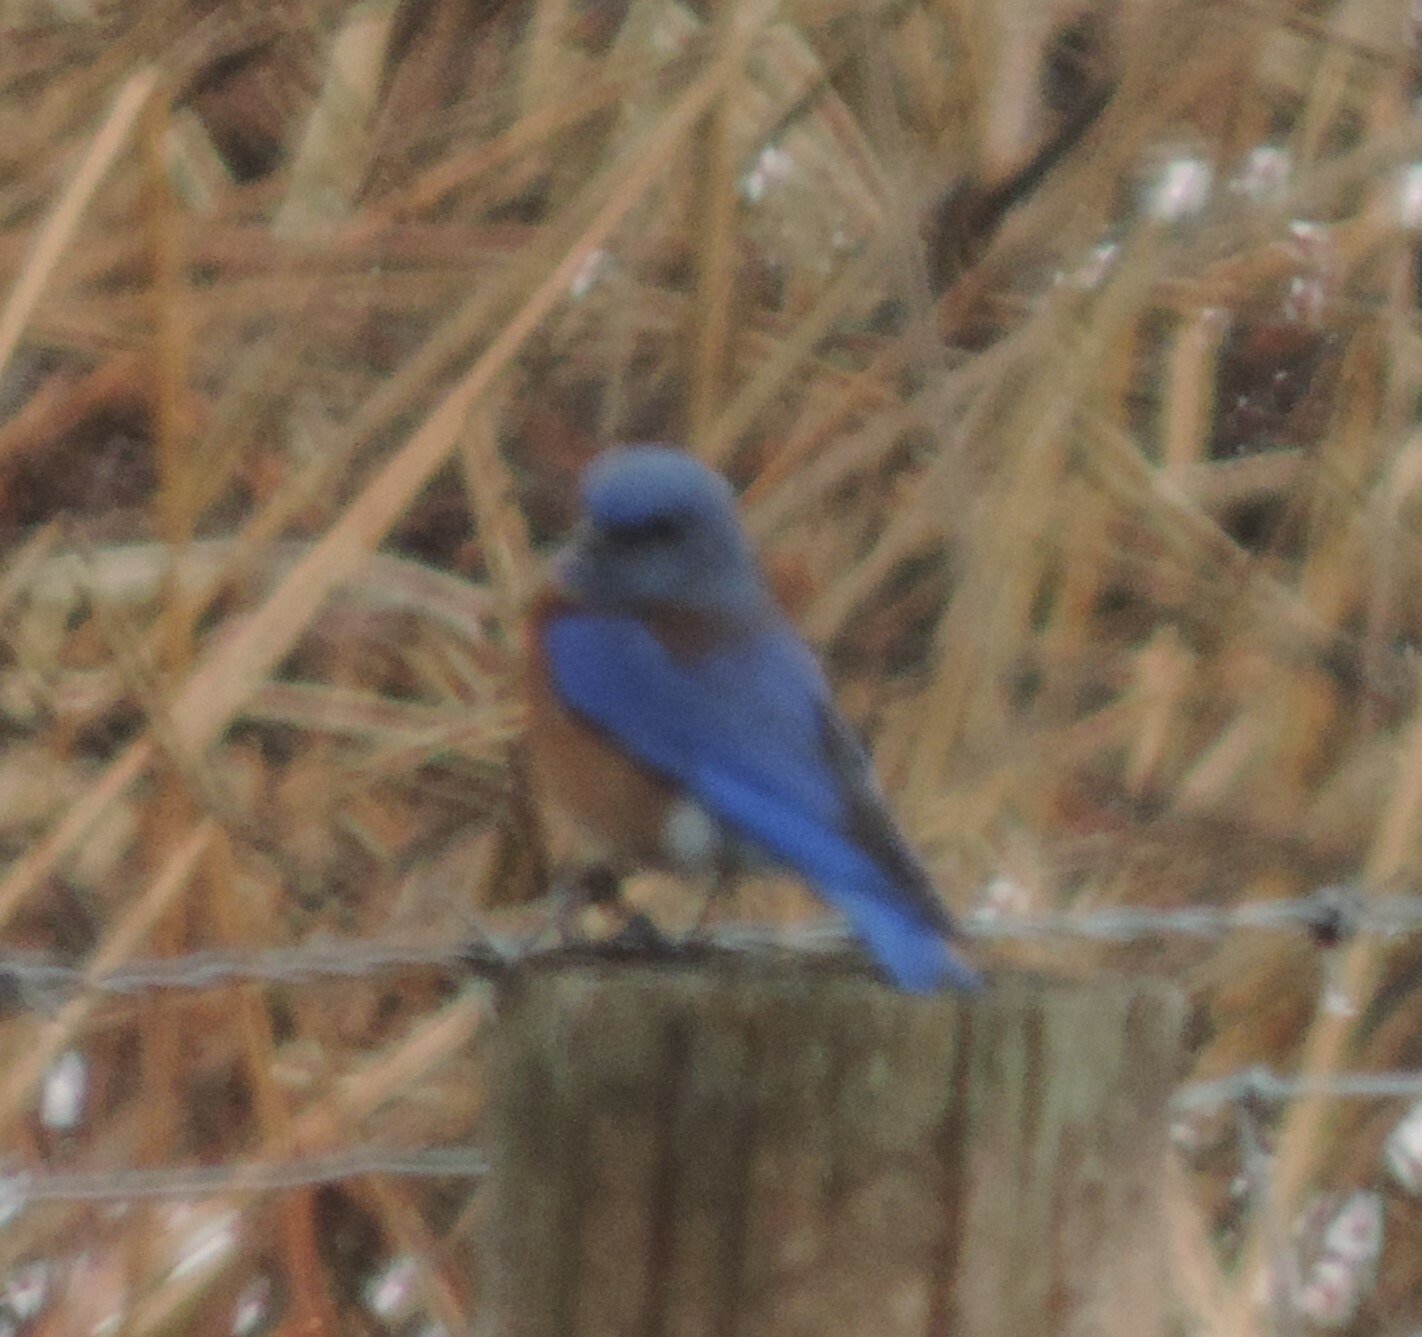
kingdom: Animalia
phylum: Chordata
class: Aves
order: Passeriformes
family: Turdidae
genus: Sialia
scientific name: Sialia mexicana
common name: Western bluebird
